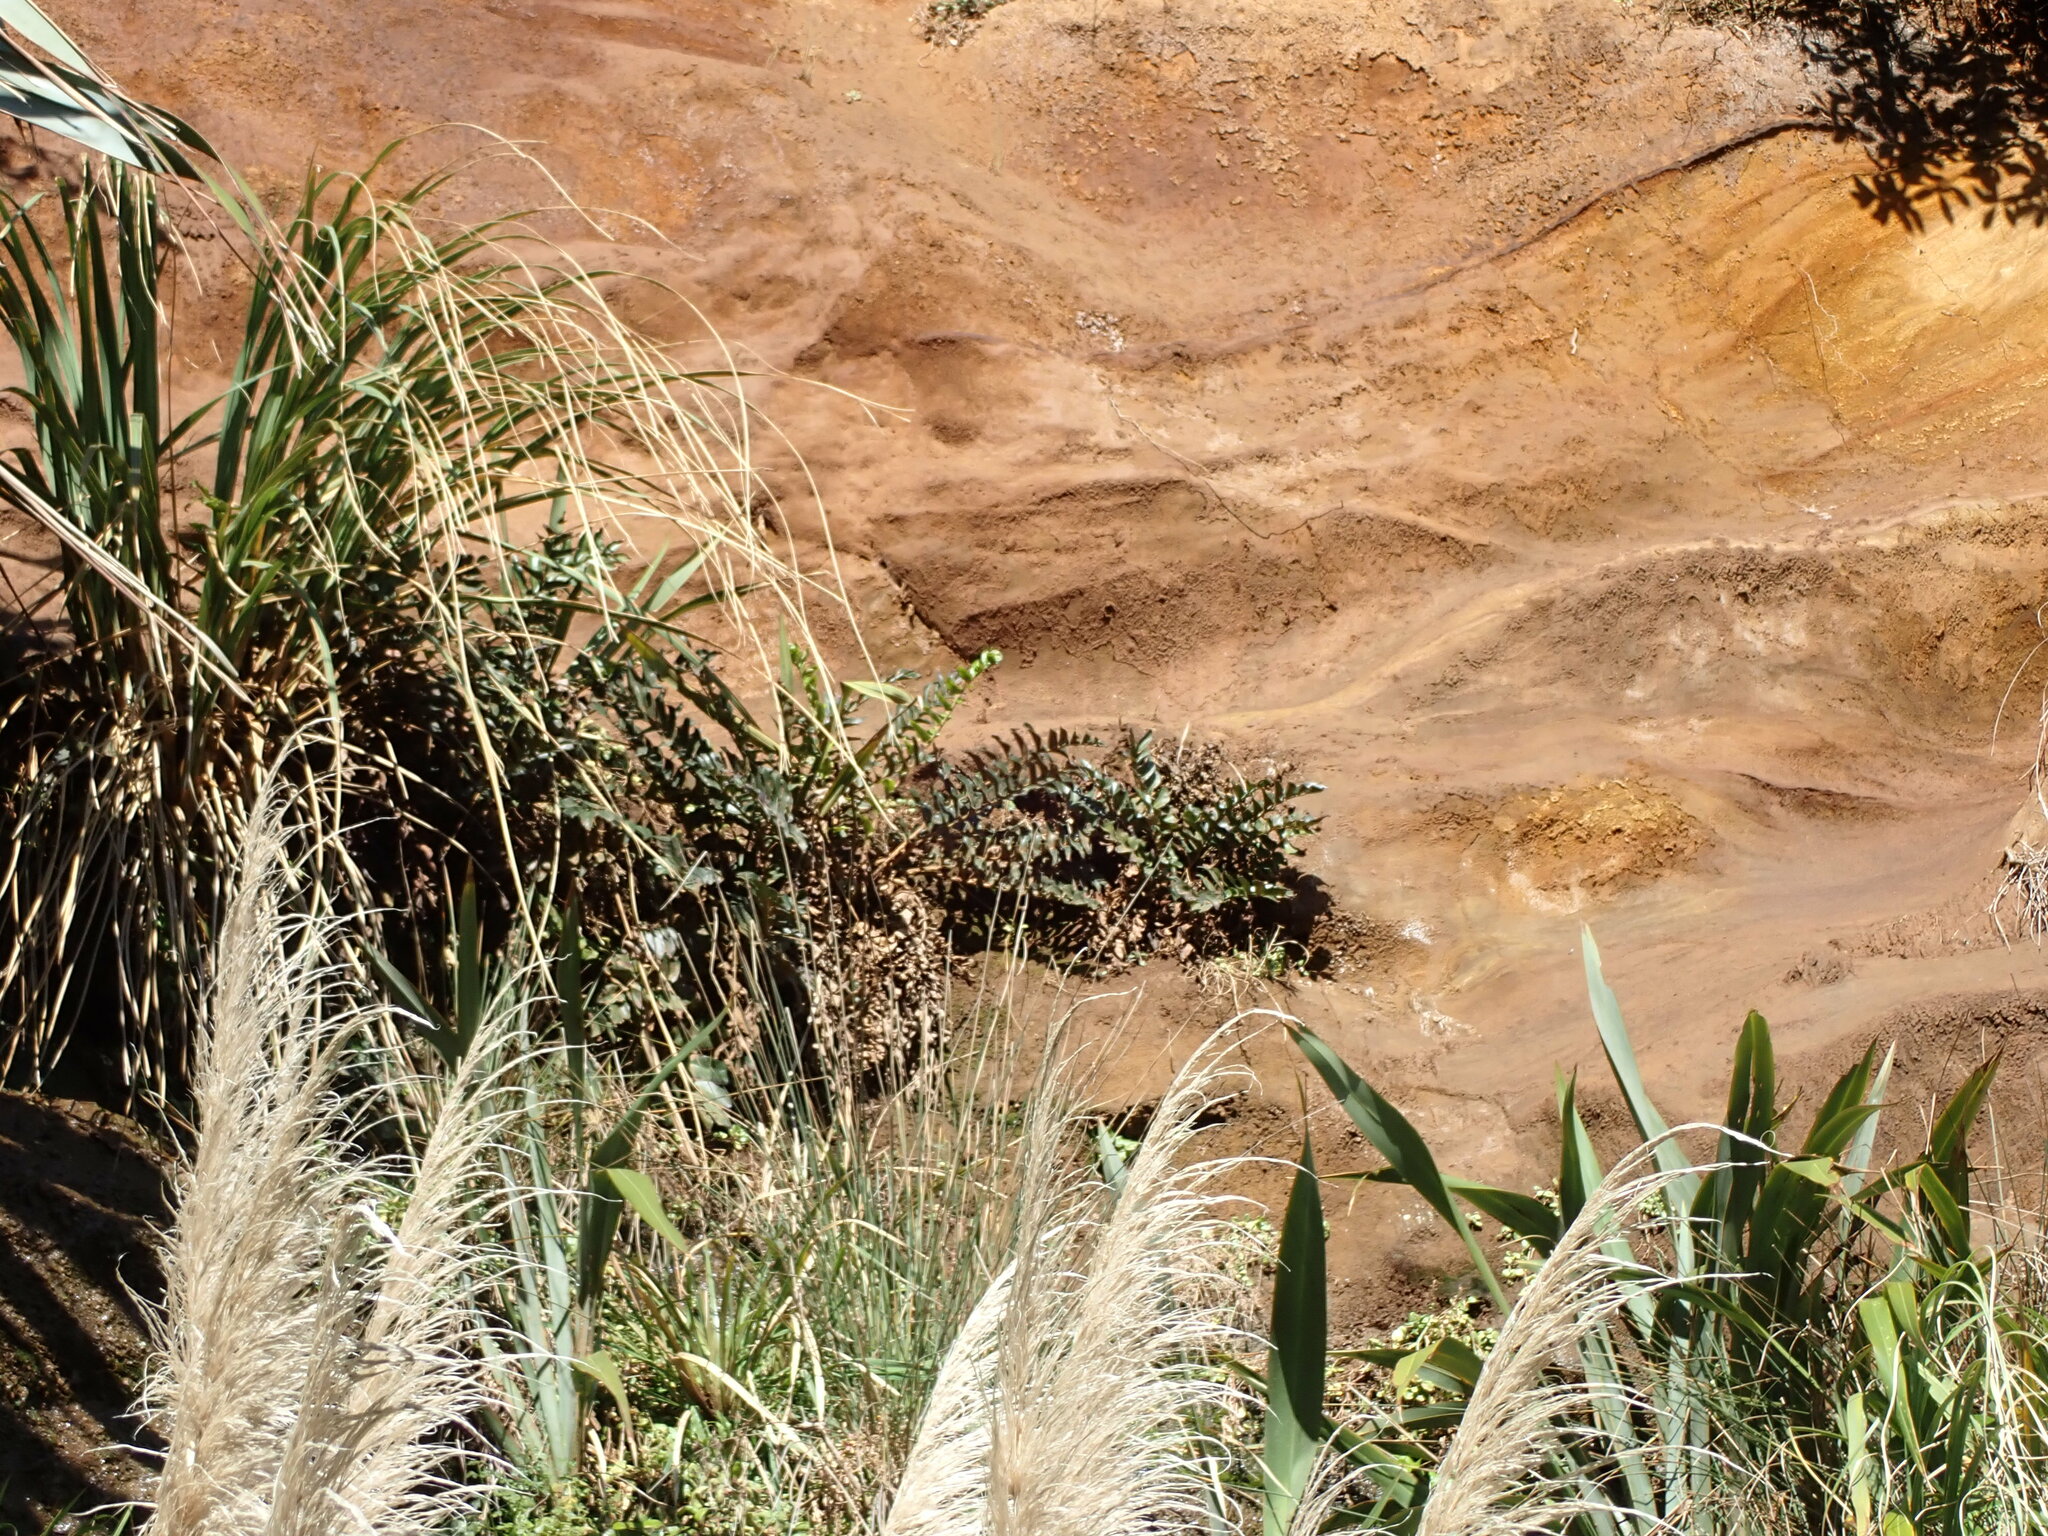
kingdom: Plantae
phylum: Tracheophyta
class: Polypodiopsida
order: Polypodiales
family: Dryopteridaceae
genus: Cyrtomium
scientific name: Cyrtomium falcatum
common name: House holly-fern
